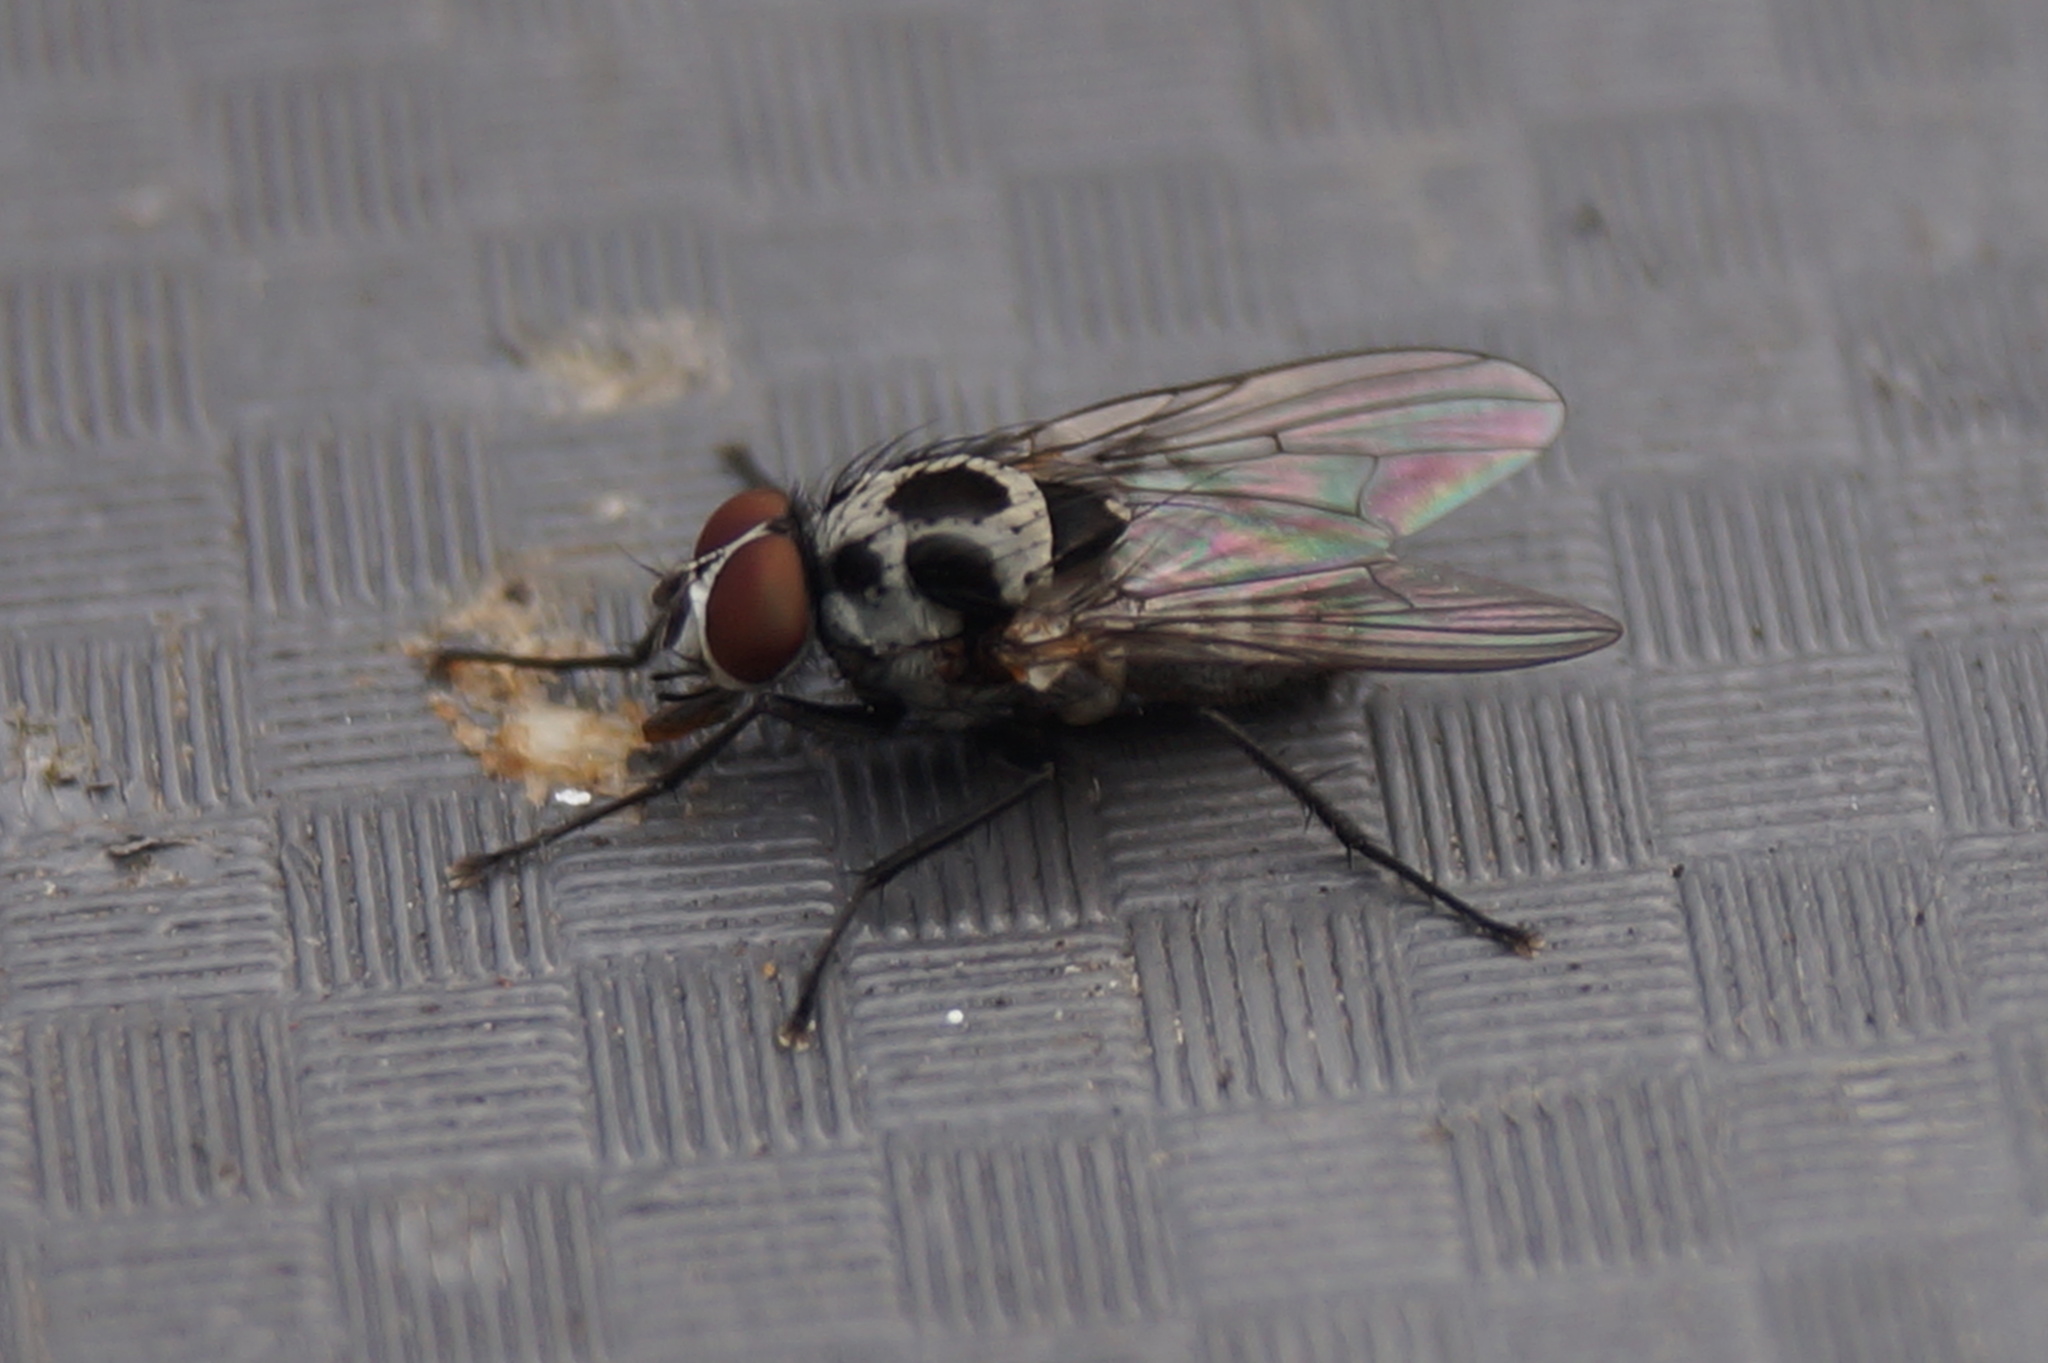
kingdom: Animalia
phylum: Arthropoda
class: Insecta
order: Diptera
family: Anthomyiidae
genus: Anthomyia
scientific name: Anthomyia procellaris
